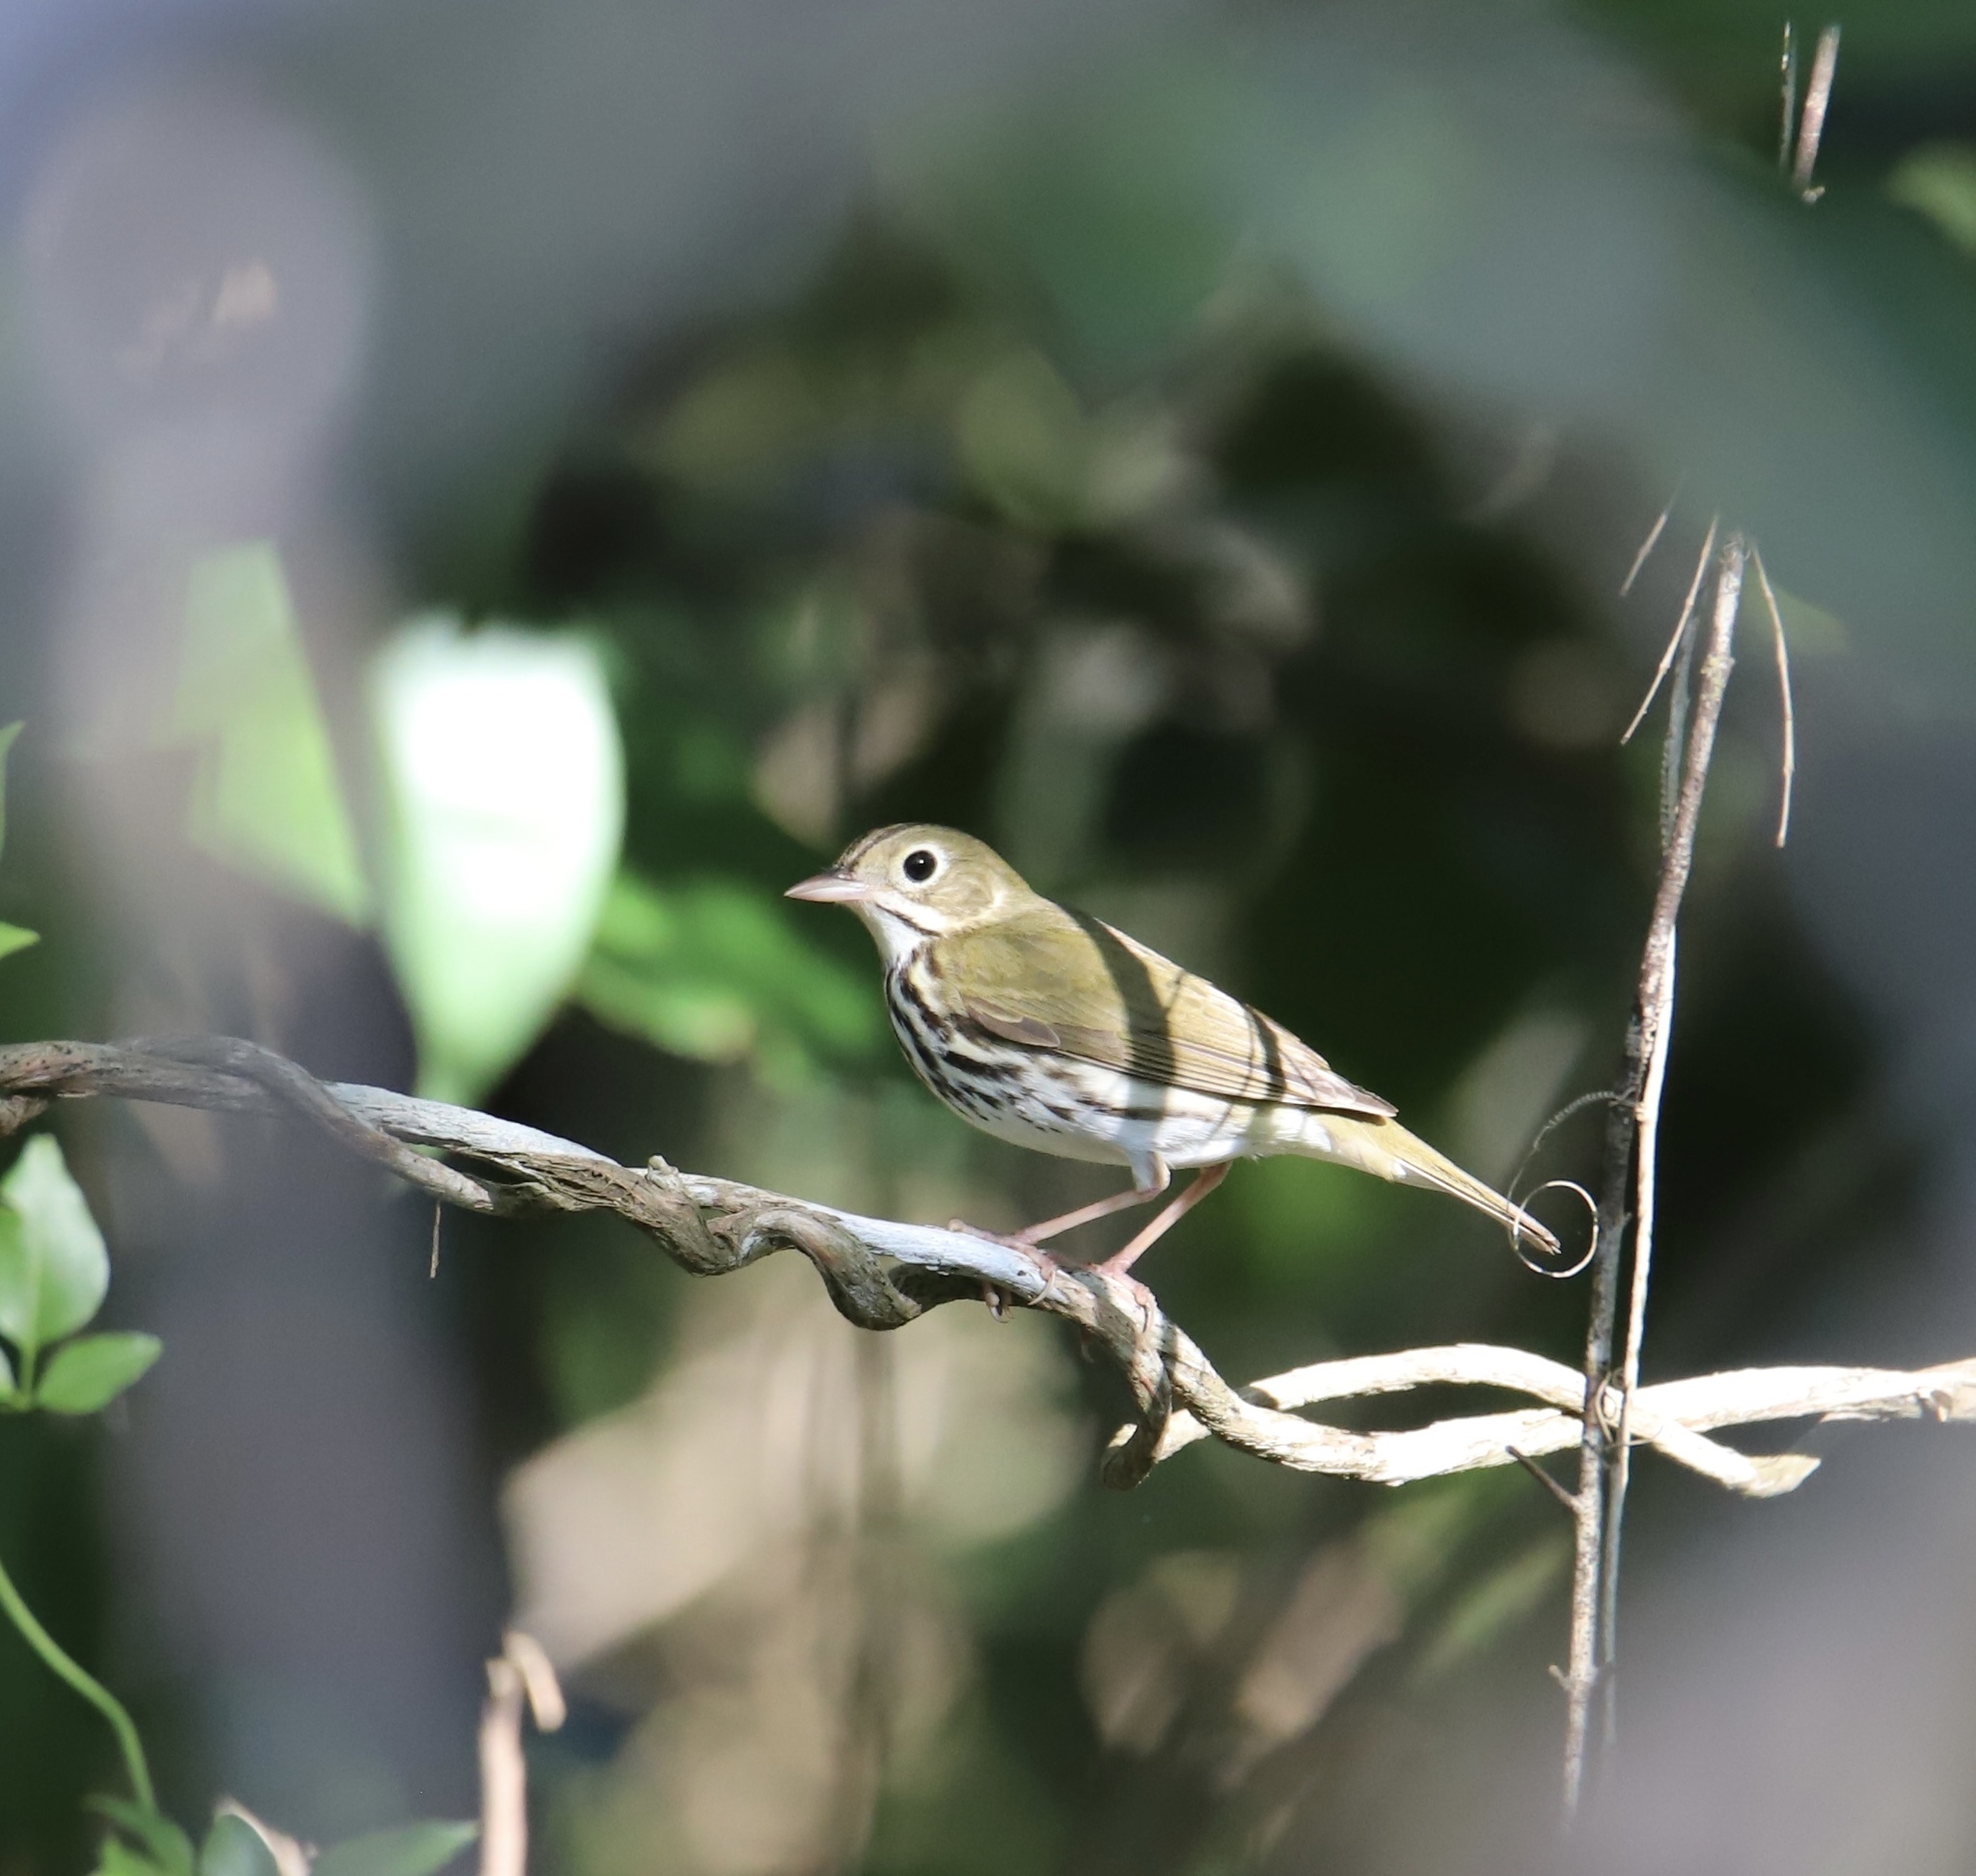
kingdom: Animalia
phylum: Chordata
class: Aves
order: Passeriformes
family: Parulidae
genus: Seiurus
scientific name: Seiurus aurocapilla
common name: Ovenbird
